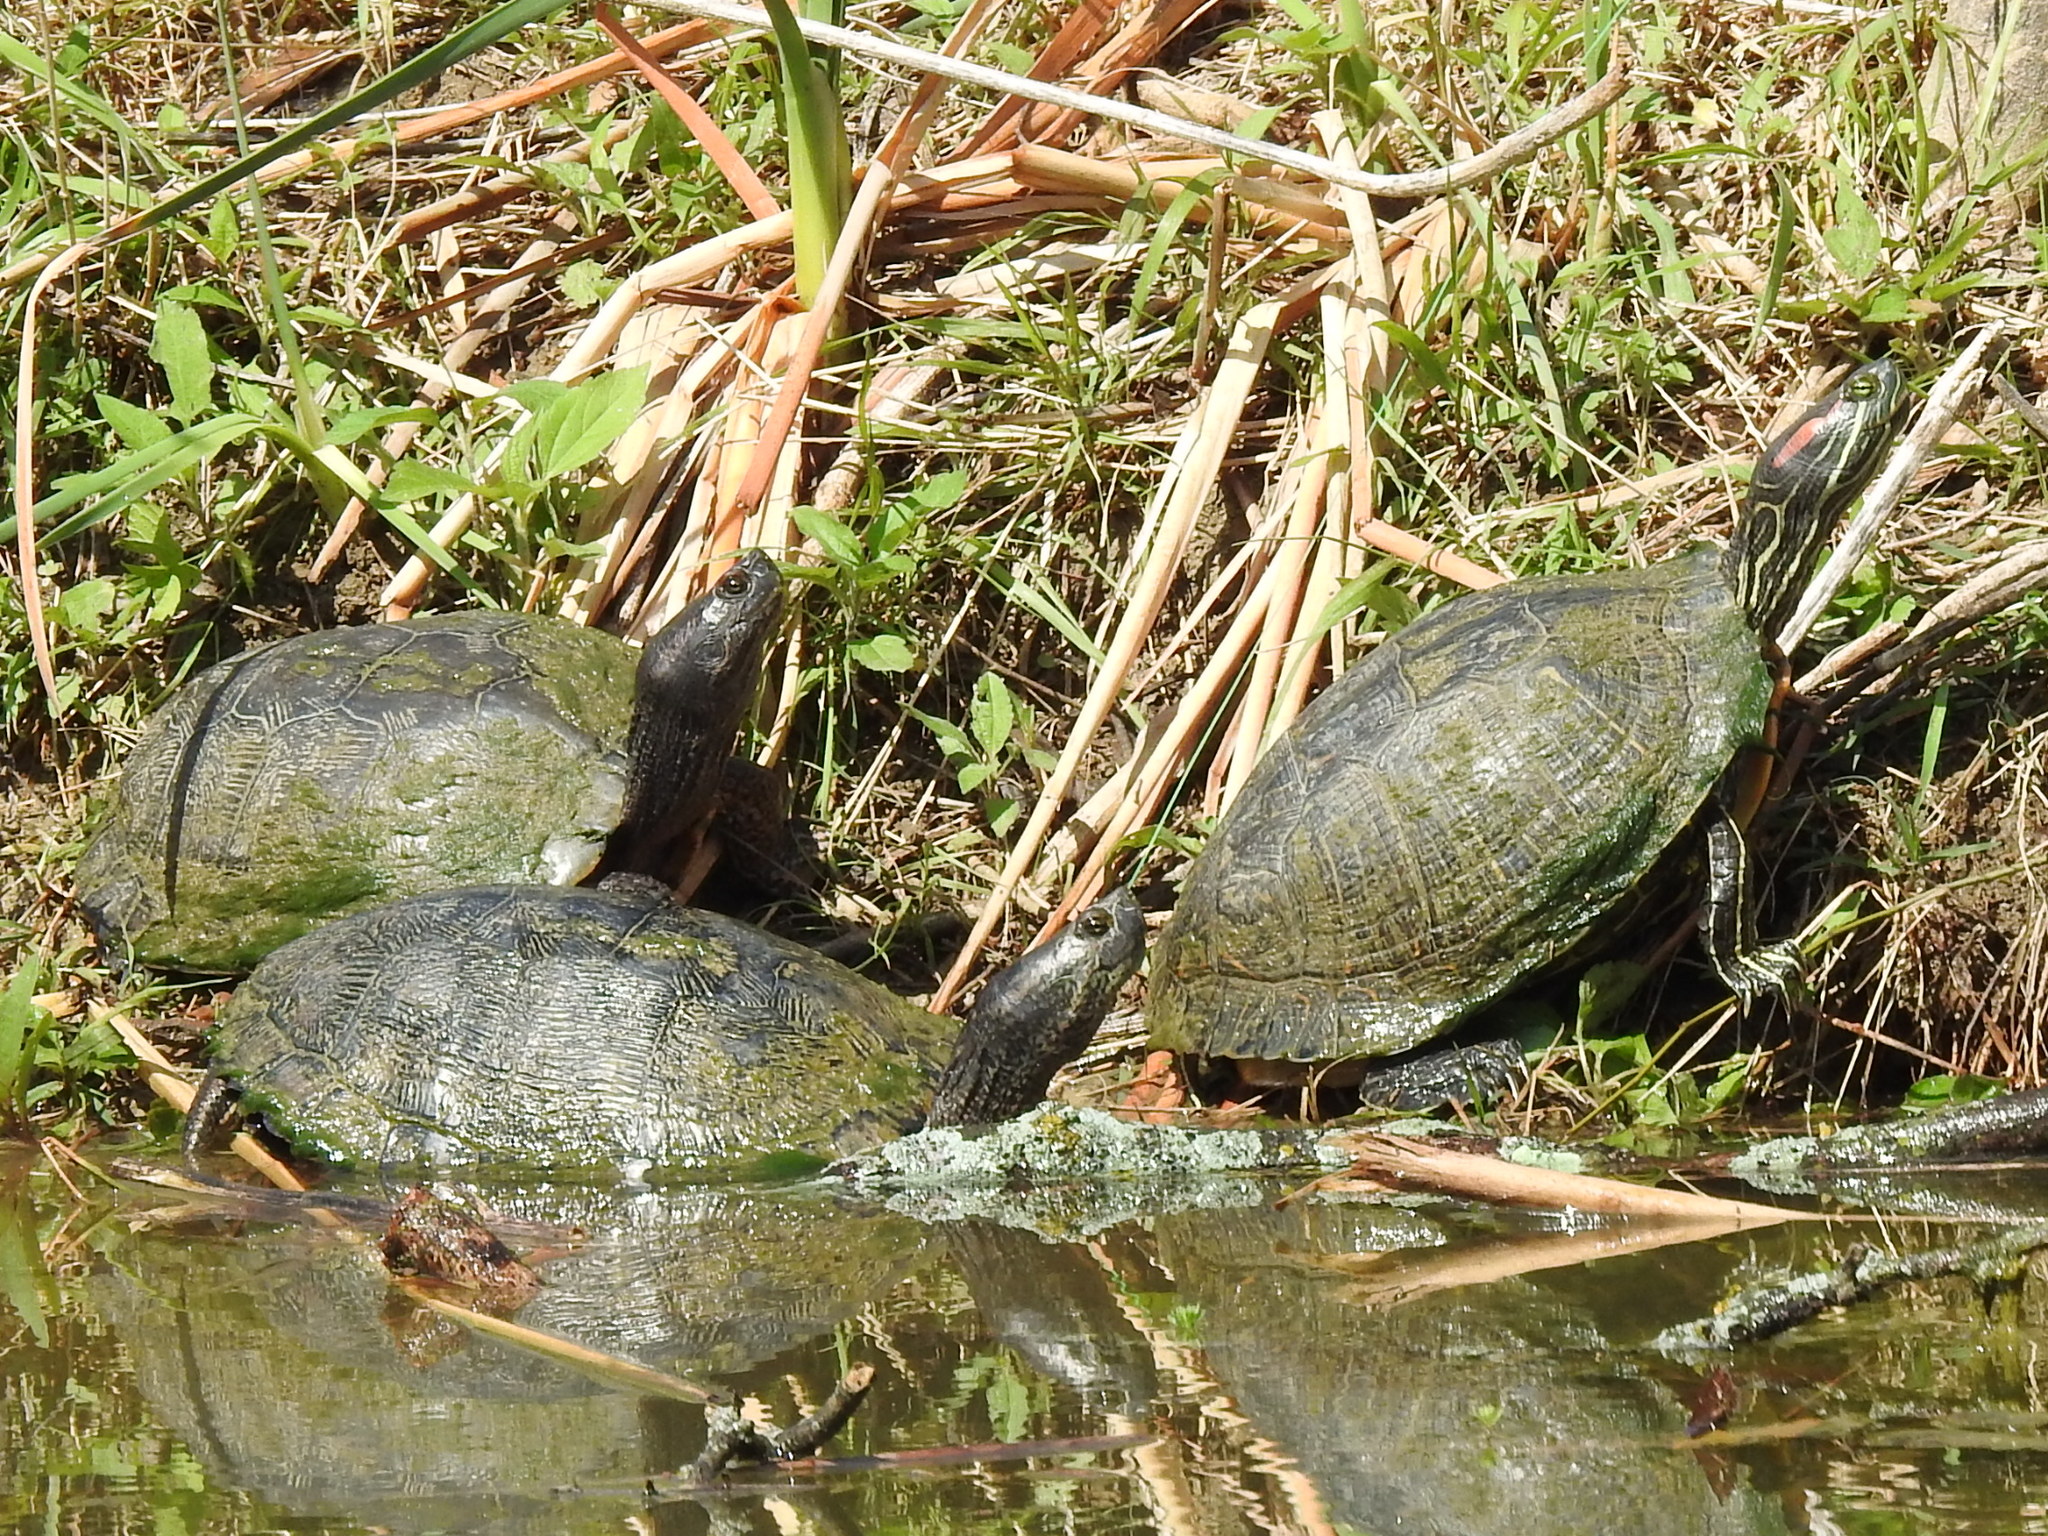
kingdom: Animalia
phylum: Chordata
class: Testudines
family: Emydidae
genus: Trachemys
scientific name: Trachemys scripta
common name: Slider
